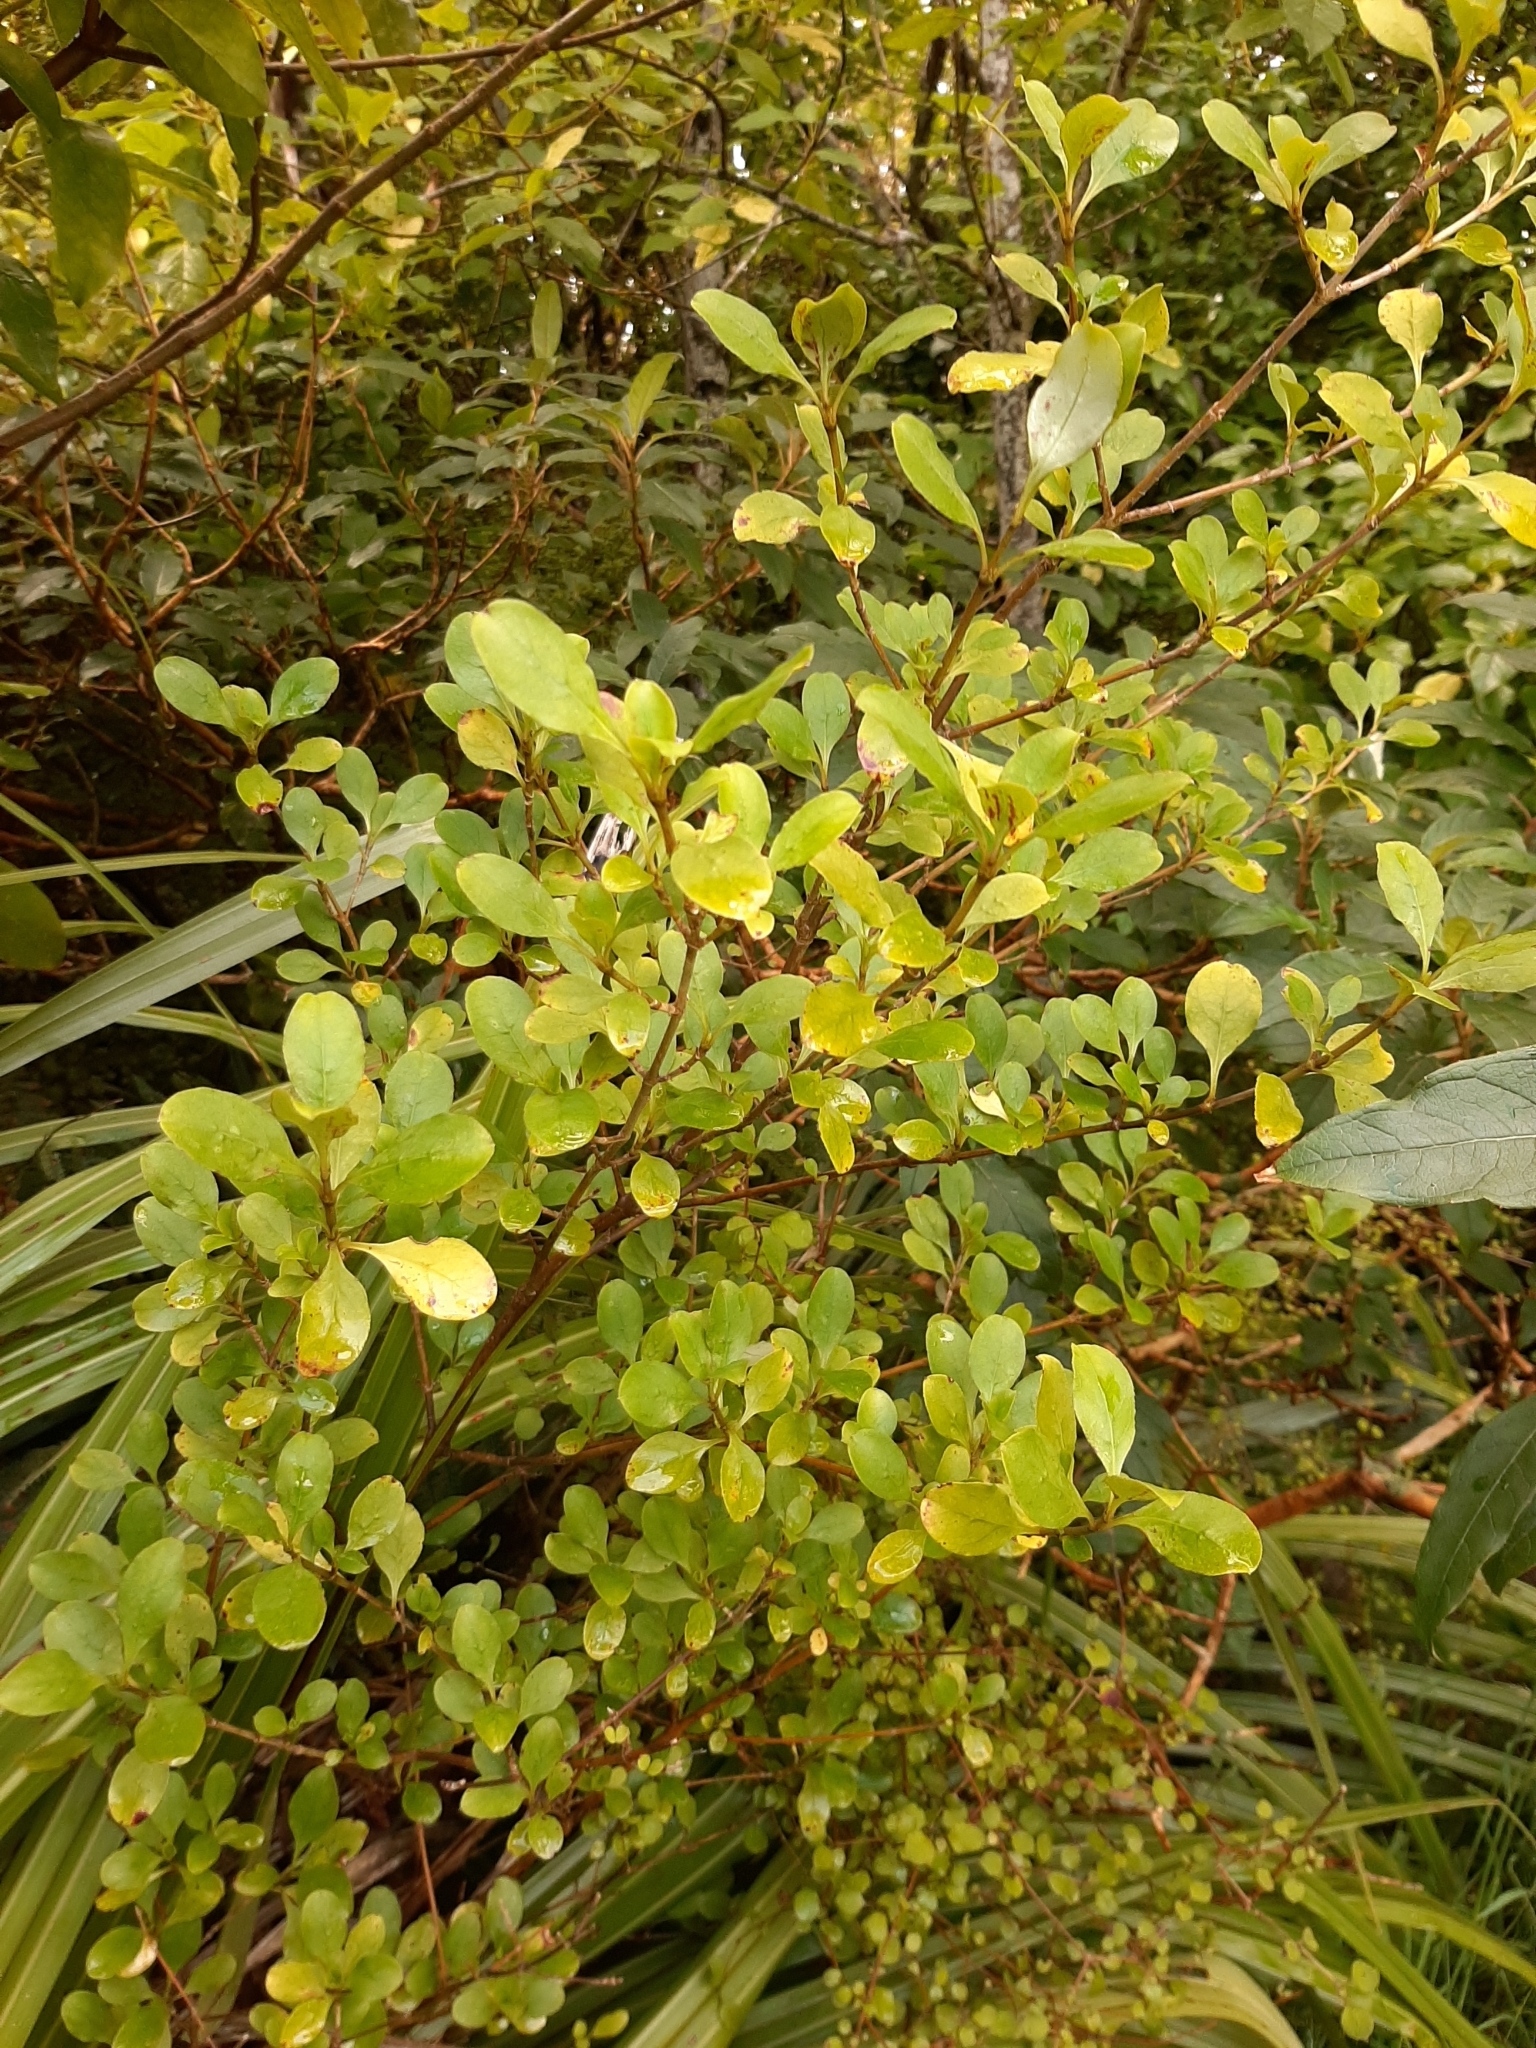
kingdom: Plantae
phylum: Tracheophyta
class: Magnoliopsida
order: Gentianales
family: Rubiaceae
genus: Coprosma
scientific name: Coprosma foetidissima
